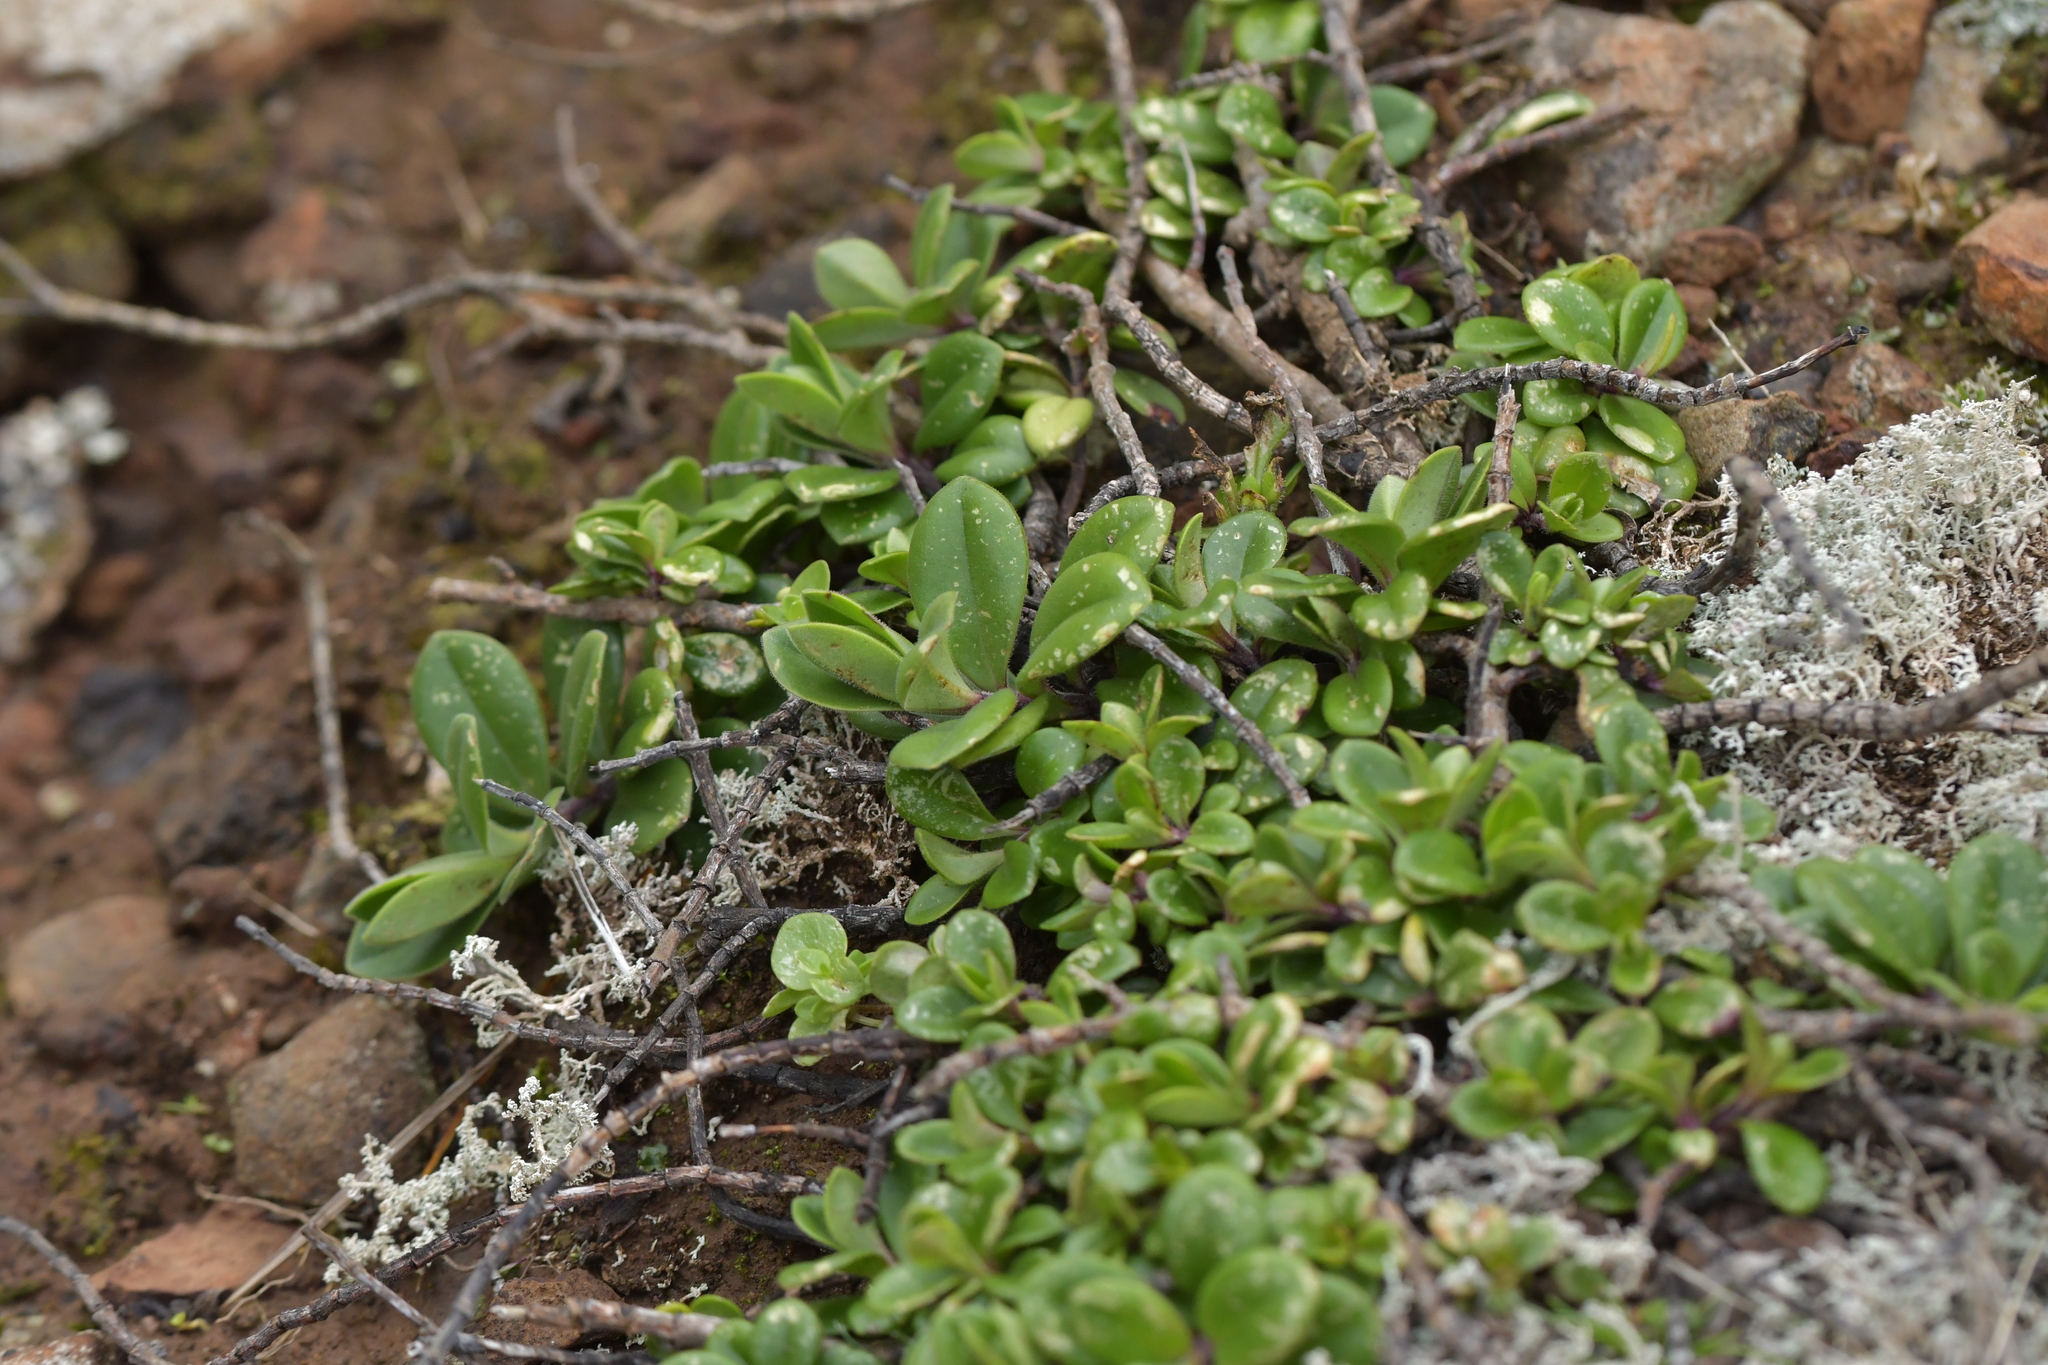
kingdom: Plantae
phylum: Tracheophyta
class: Magnoliopsida
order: Lamiales
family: Plantaginaceae
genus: Veronica
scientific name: Veronica chathamica
